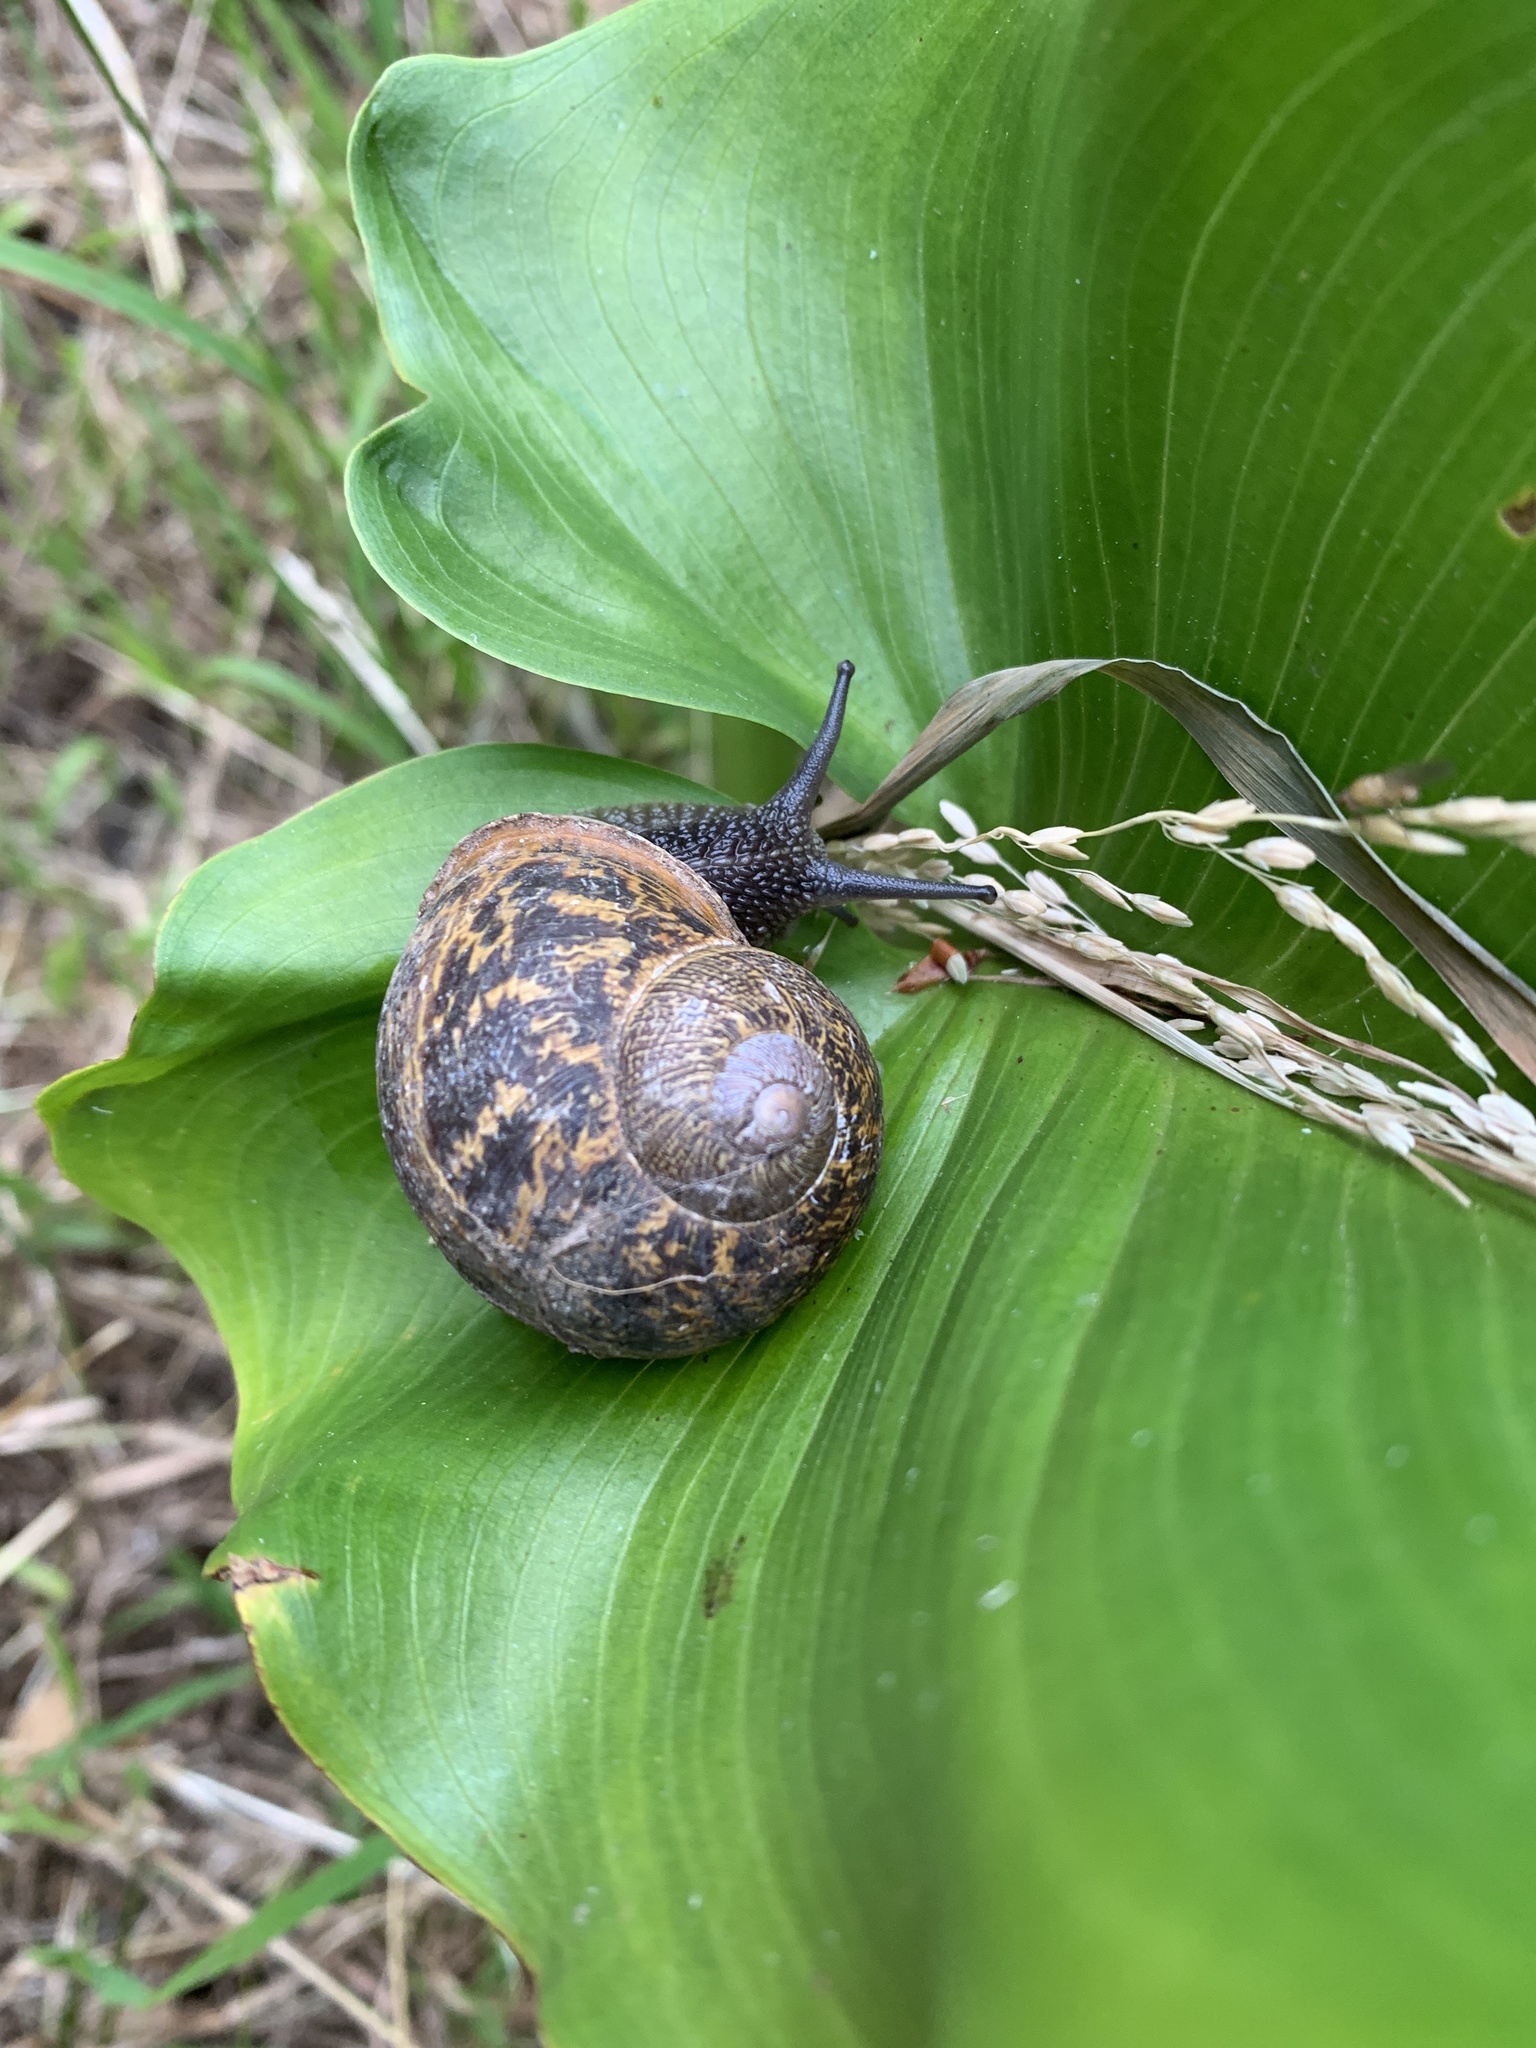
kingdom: Animalia
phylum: Mollusca
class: Gastropoda
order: Stylommatophora
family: Helicidae
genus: Cornu
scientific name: Cornu aspersum
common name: Brown garden snail
